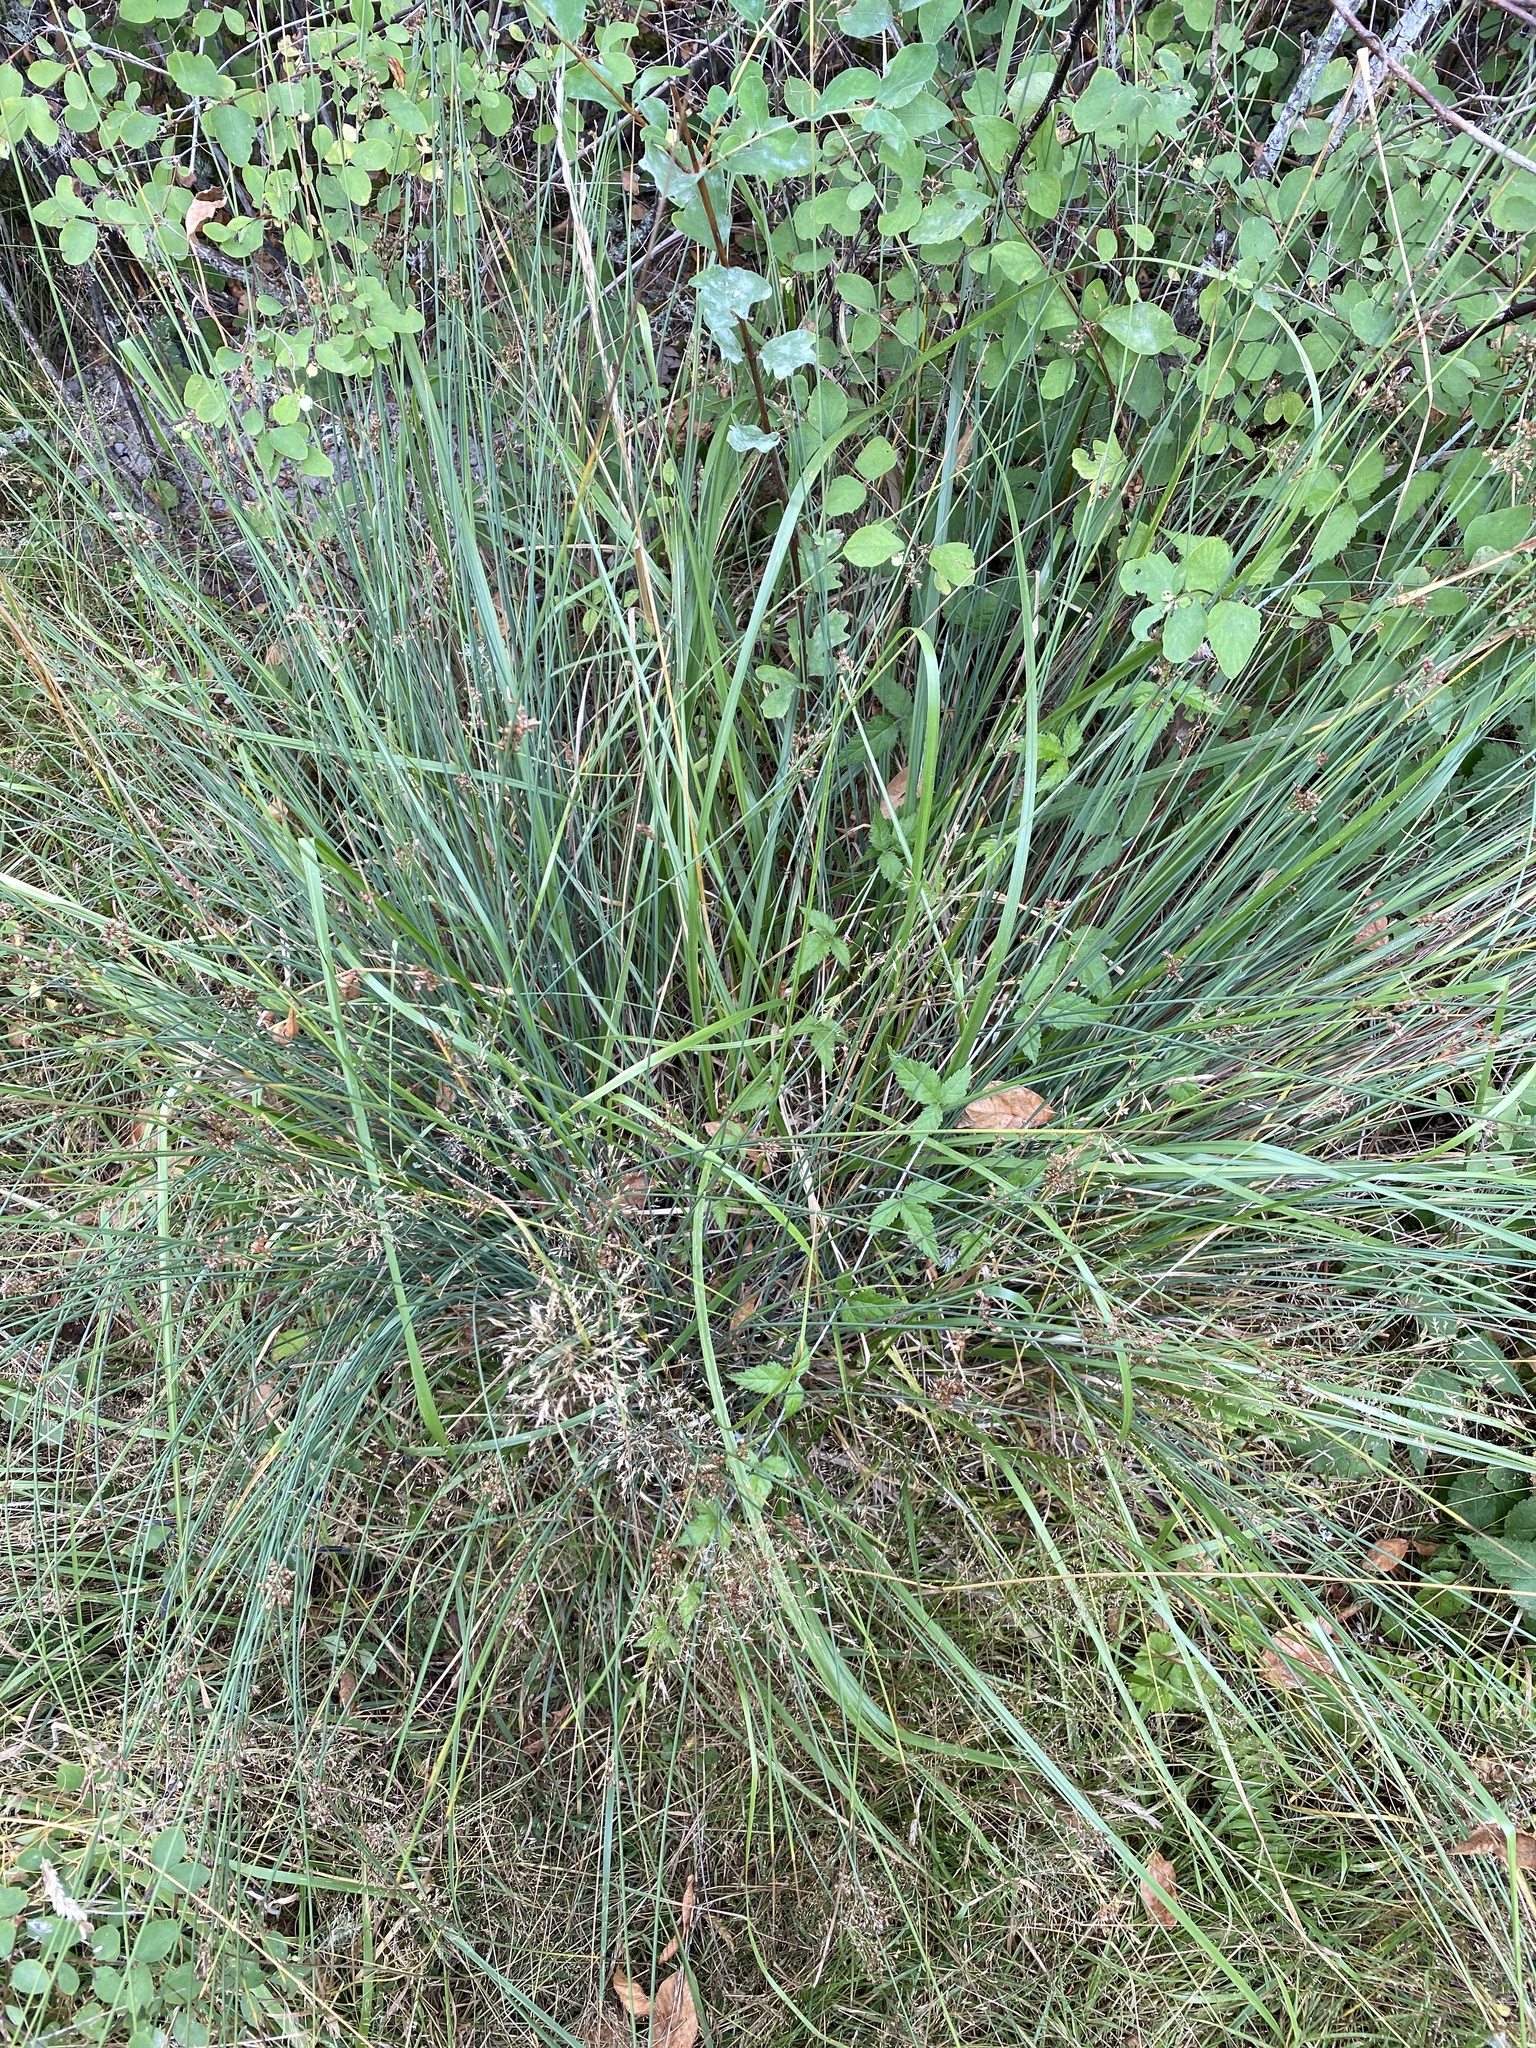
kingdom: Plantae
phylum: Tracheophyta
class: Liliopsida
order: Poales
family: Juncaceae
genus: Juncus
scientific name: Juncus patens
